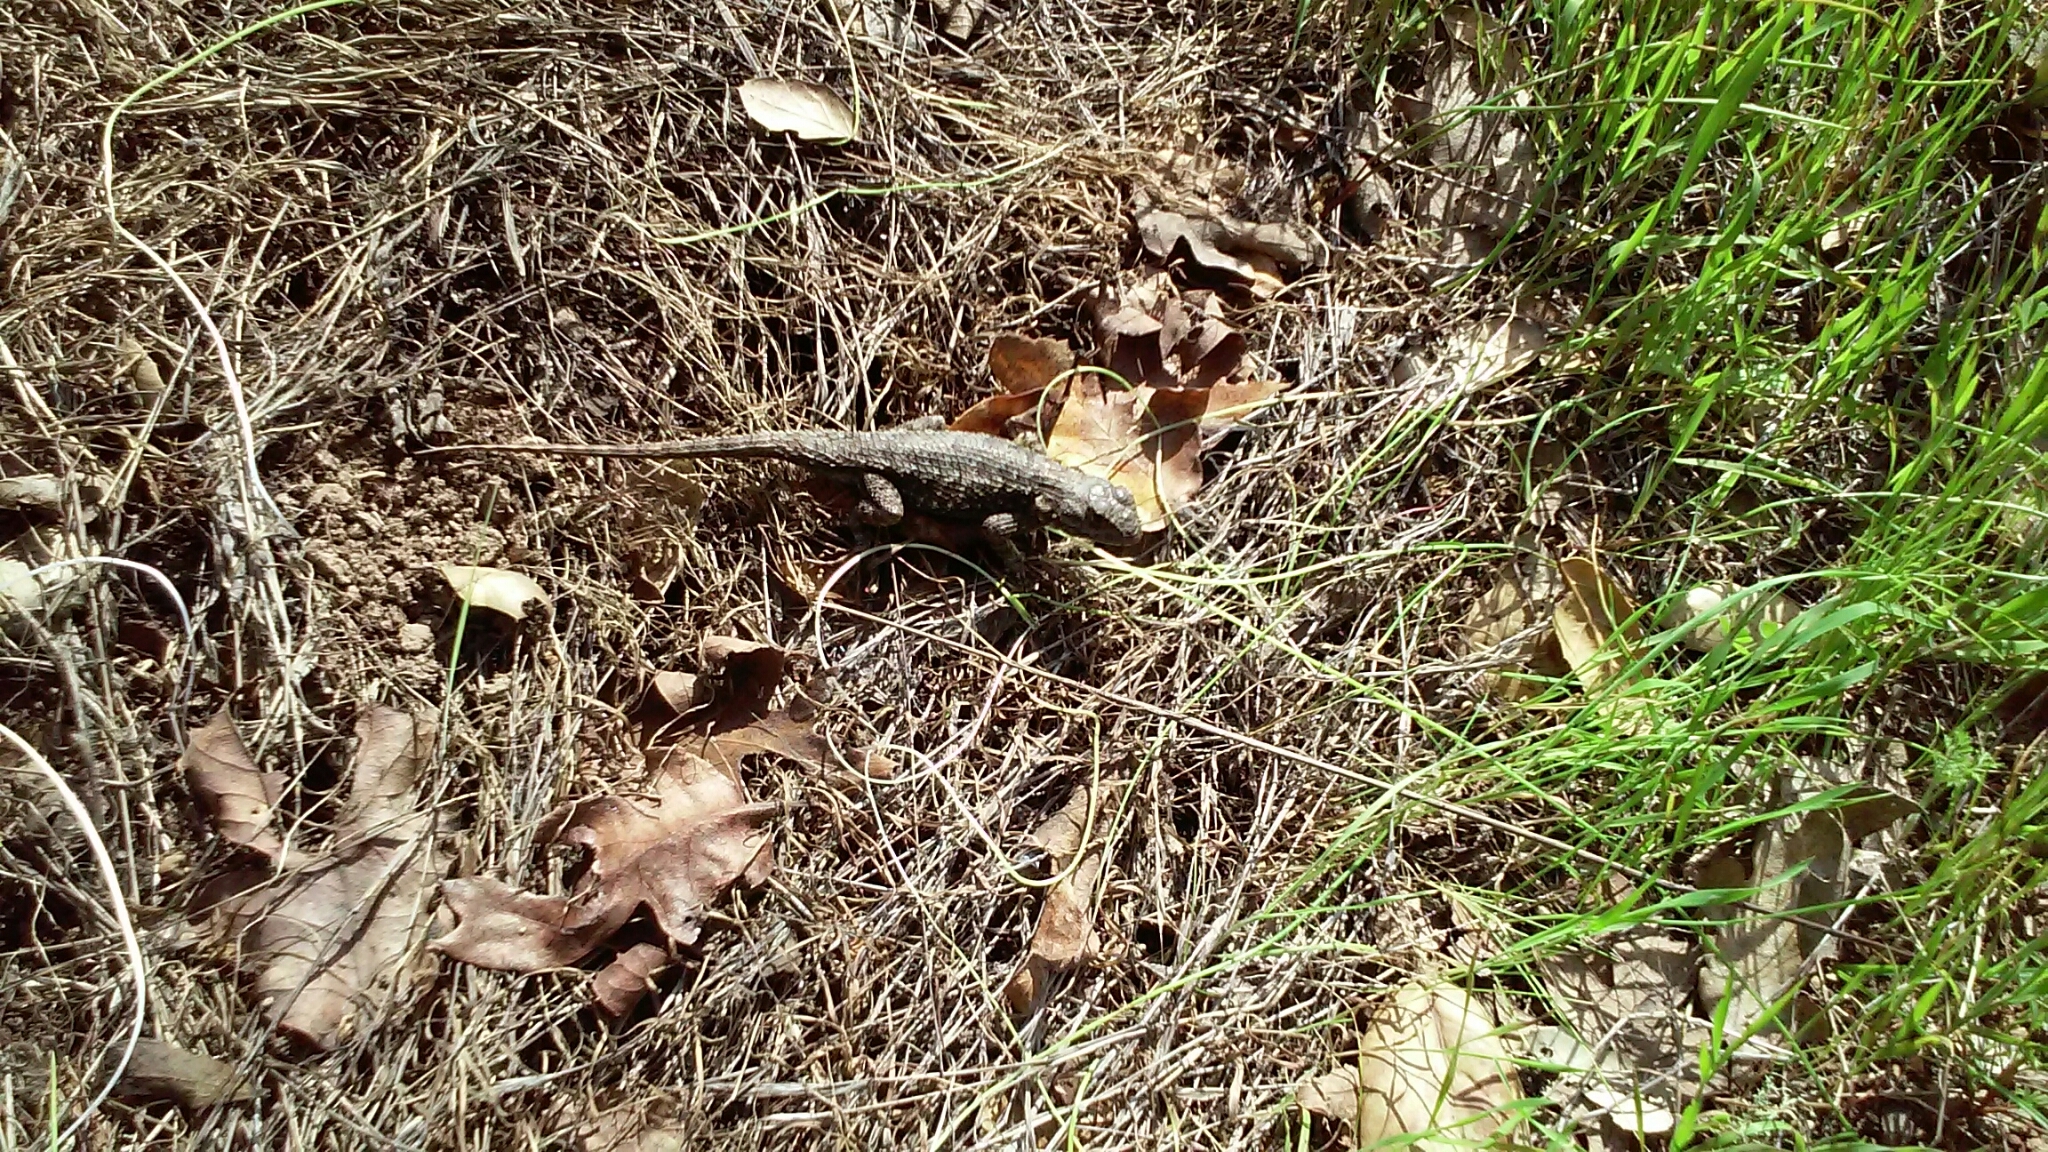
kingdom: Animalia
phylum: Chordata
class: Squamata
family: Phrynosomatidae
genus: Sceloporus
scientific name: Sceloporus occidentalis
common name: Western fence lizard
